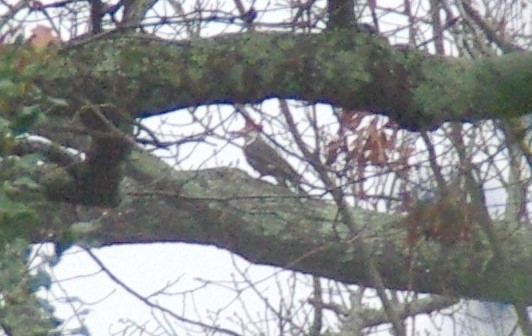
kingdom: Animalia
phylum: Chordata
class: Aves
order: Piciformes
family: Picidae
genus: Dryocopus
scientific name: Dryocopus pileatus
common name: Pileated woodpecker
